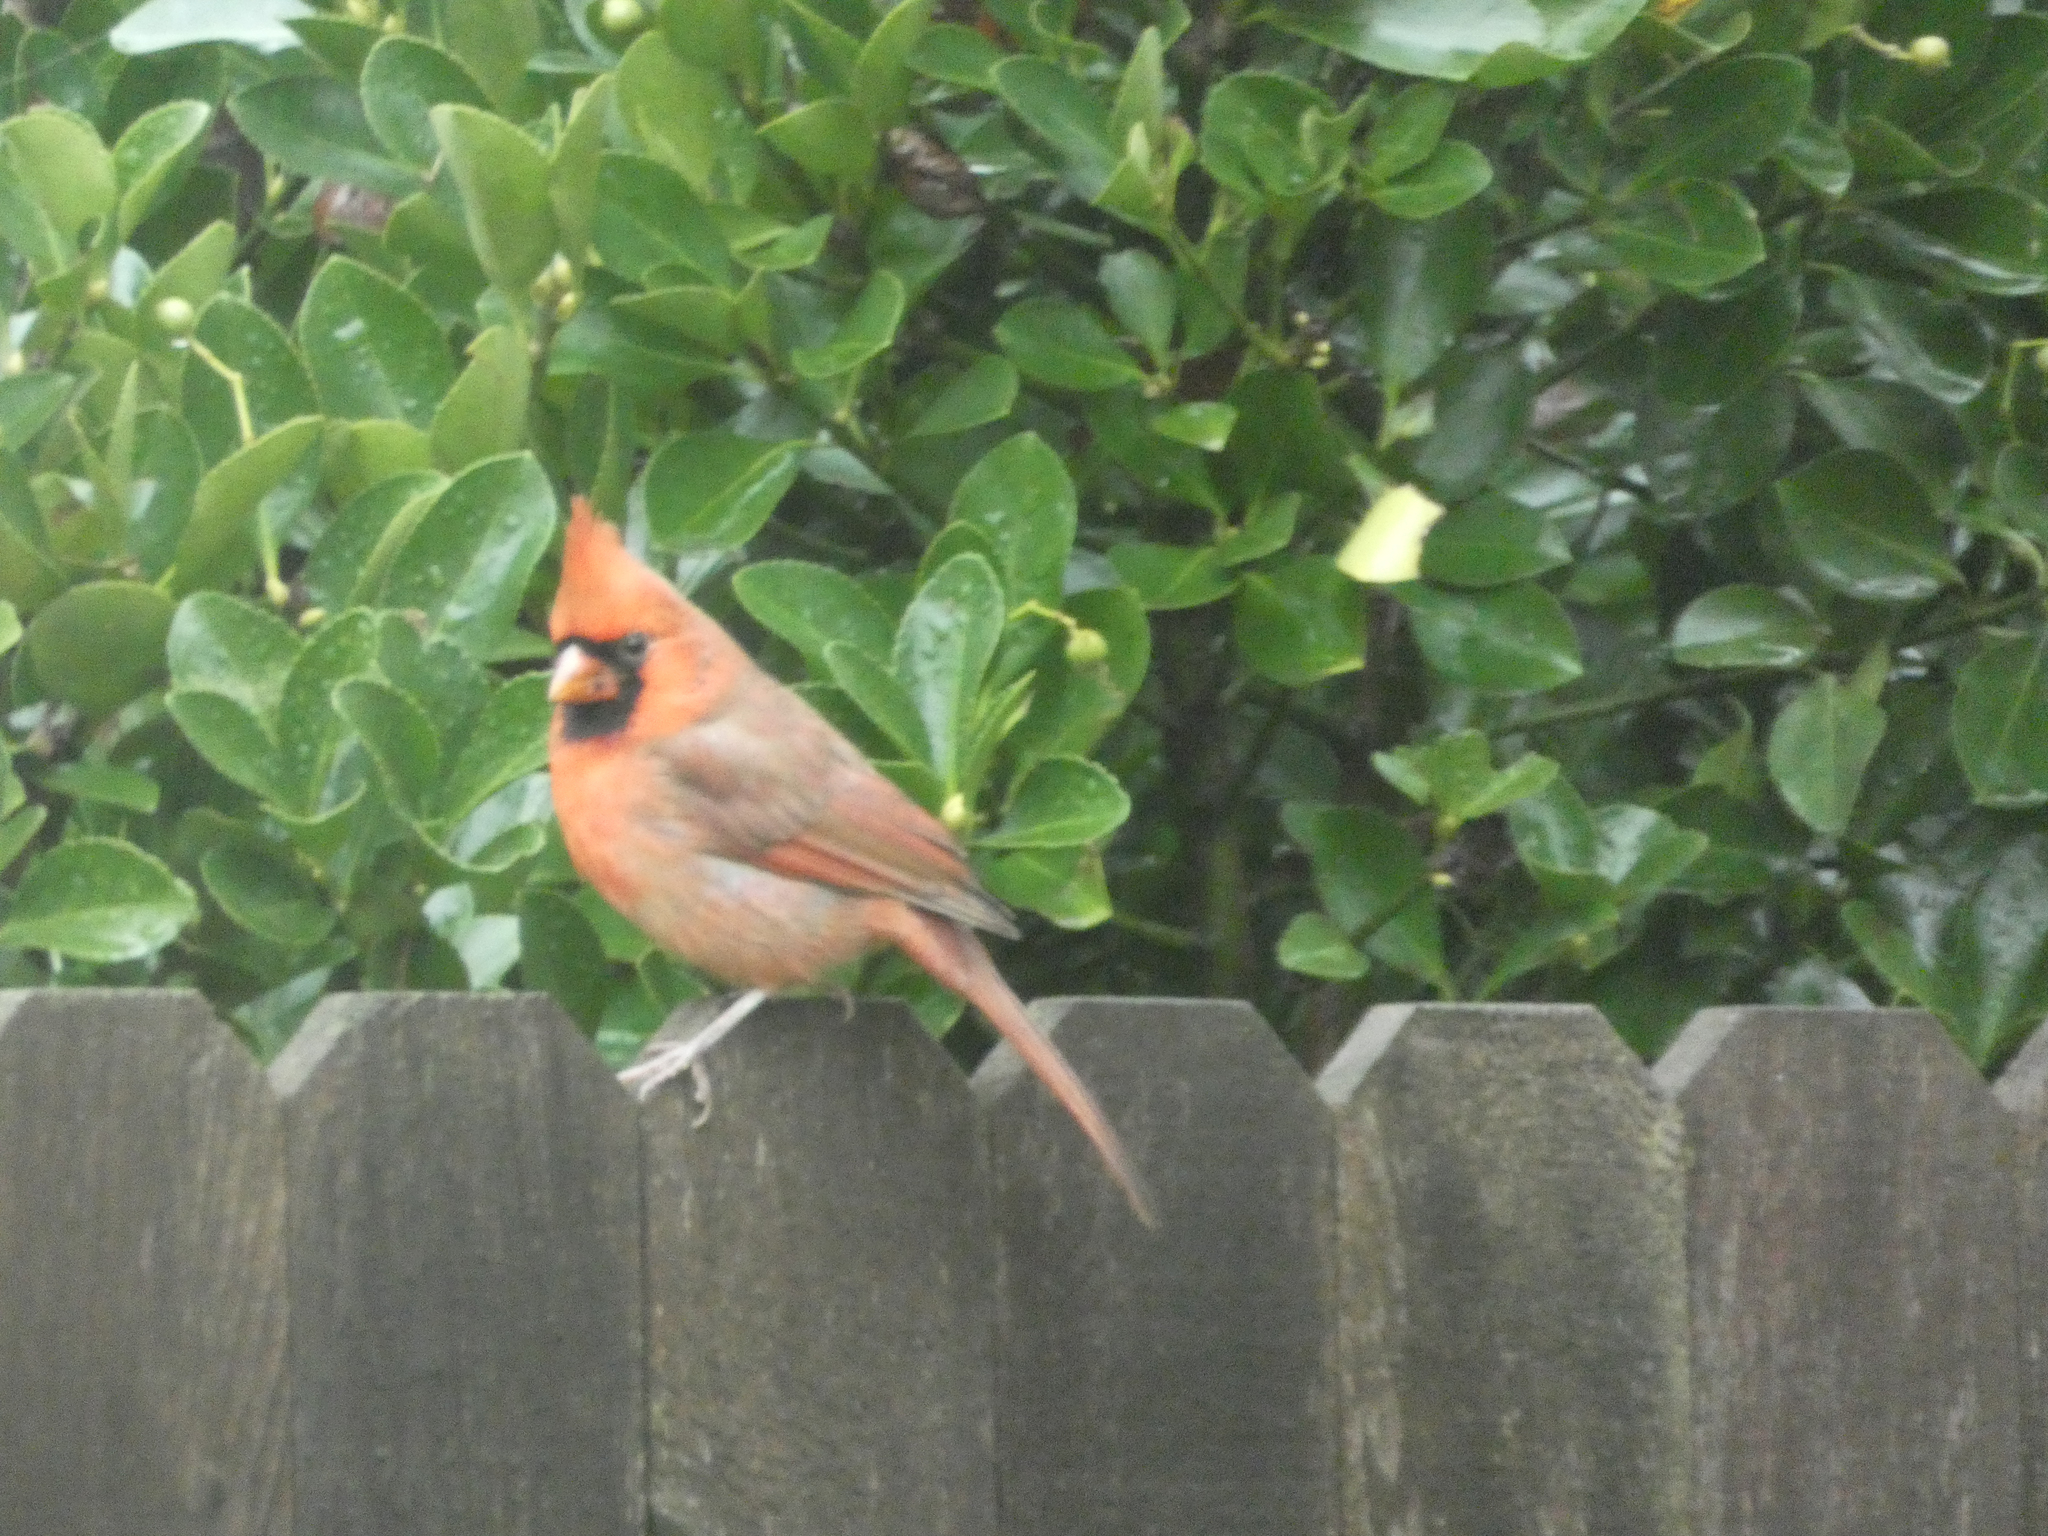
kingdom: Animalia
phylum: Chordata
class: Aves
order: Passeriformes
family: Cardinalidae
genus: Cardinalis
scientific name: Cardinalis cardinalis
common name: Northern cardinal
